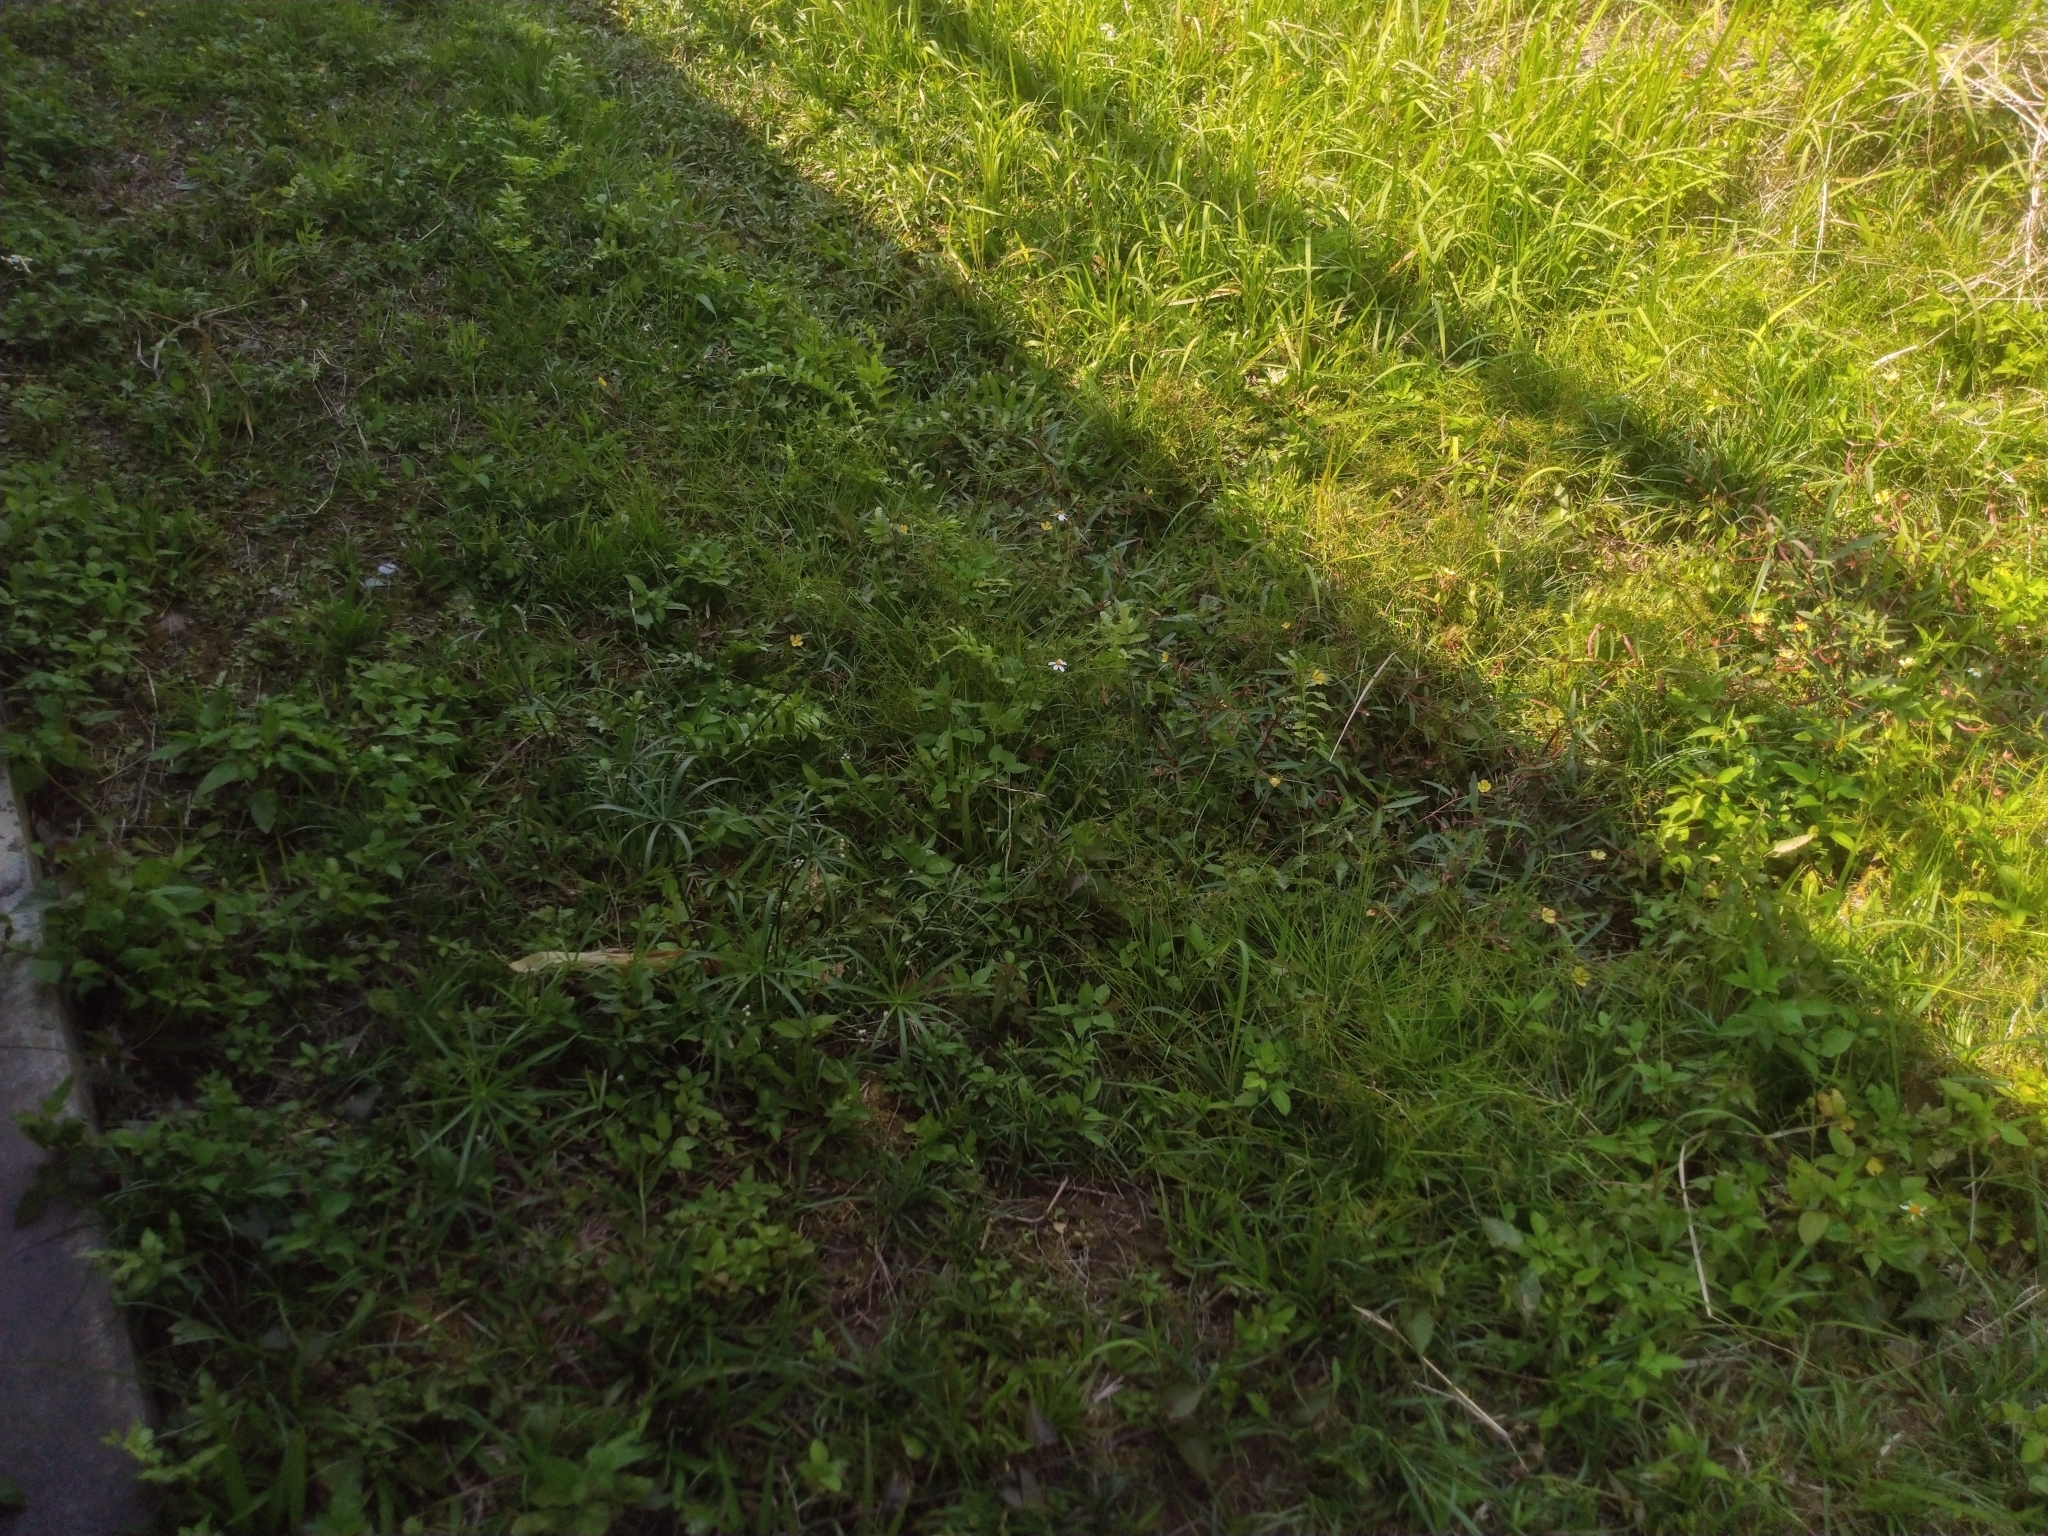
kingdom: Plantae
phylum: Tracheophyta
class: Liliopsida
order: Poales
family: Cyperaceae
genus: Cyperus
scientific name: Cyperus haspan
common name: Haspan flatsedge
